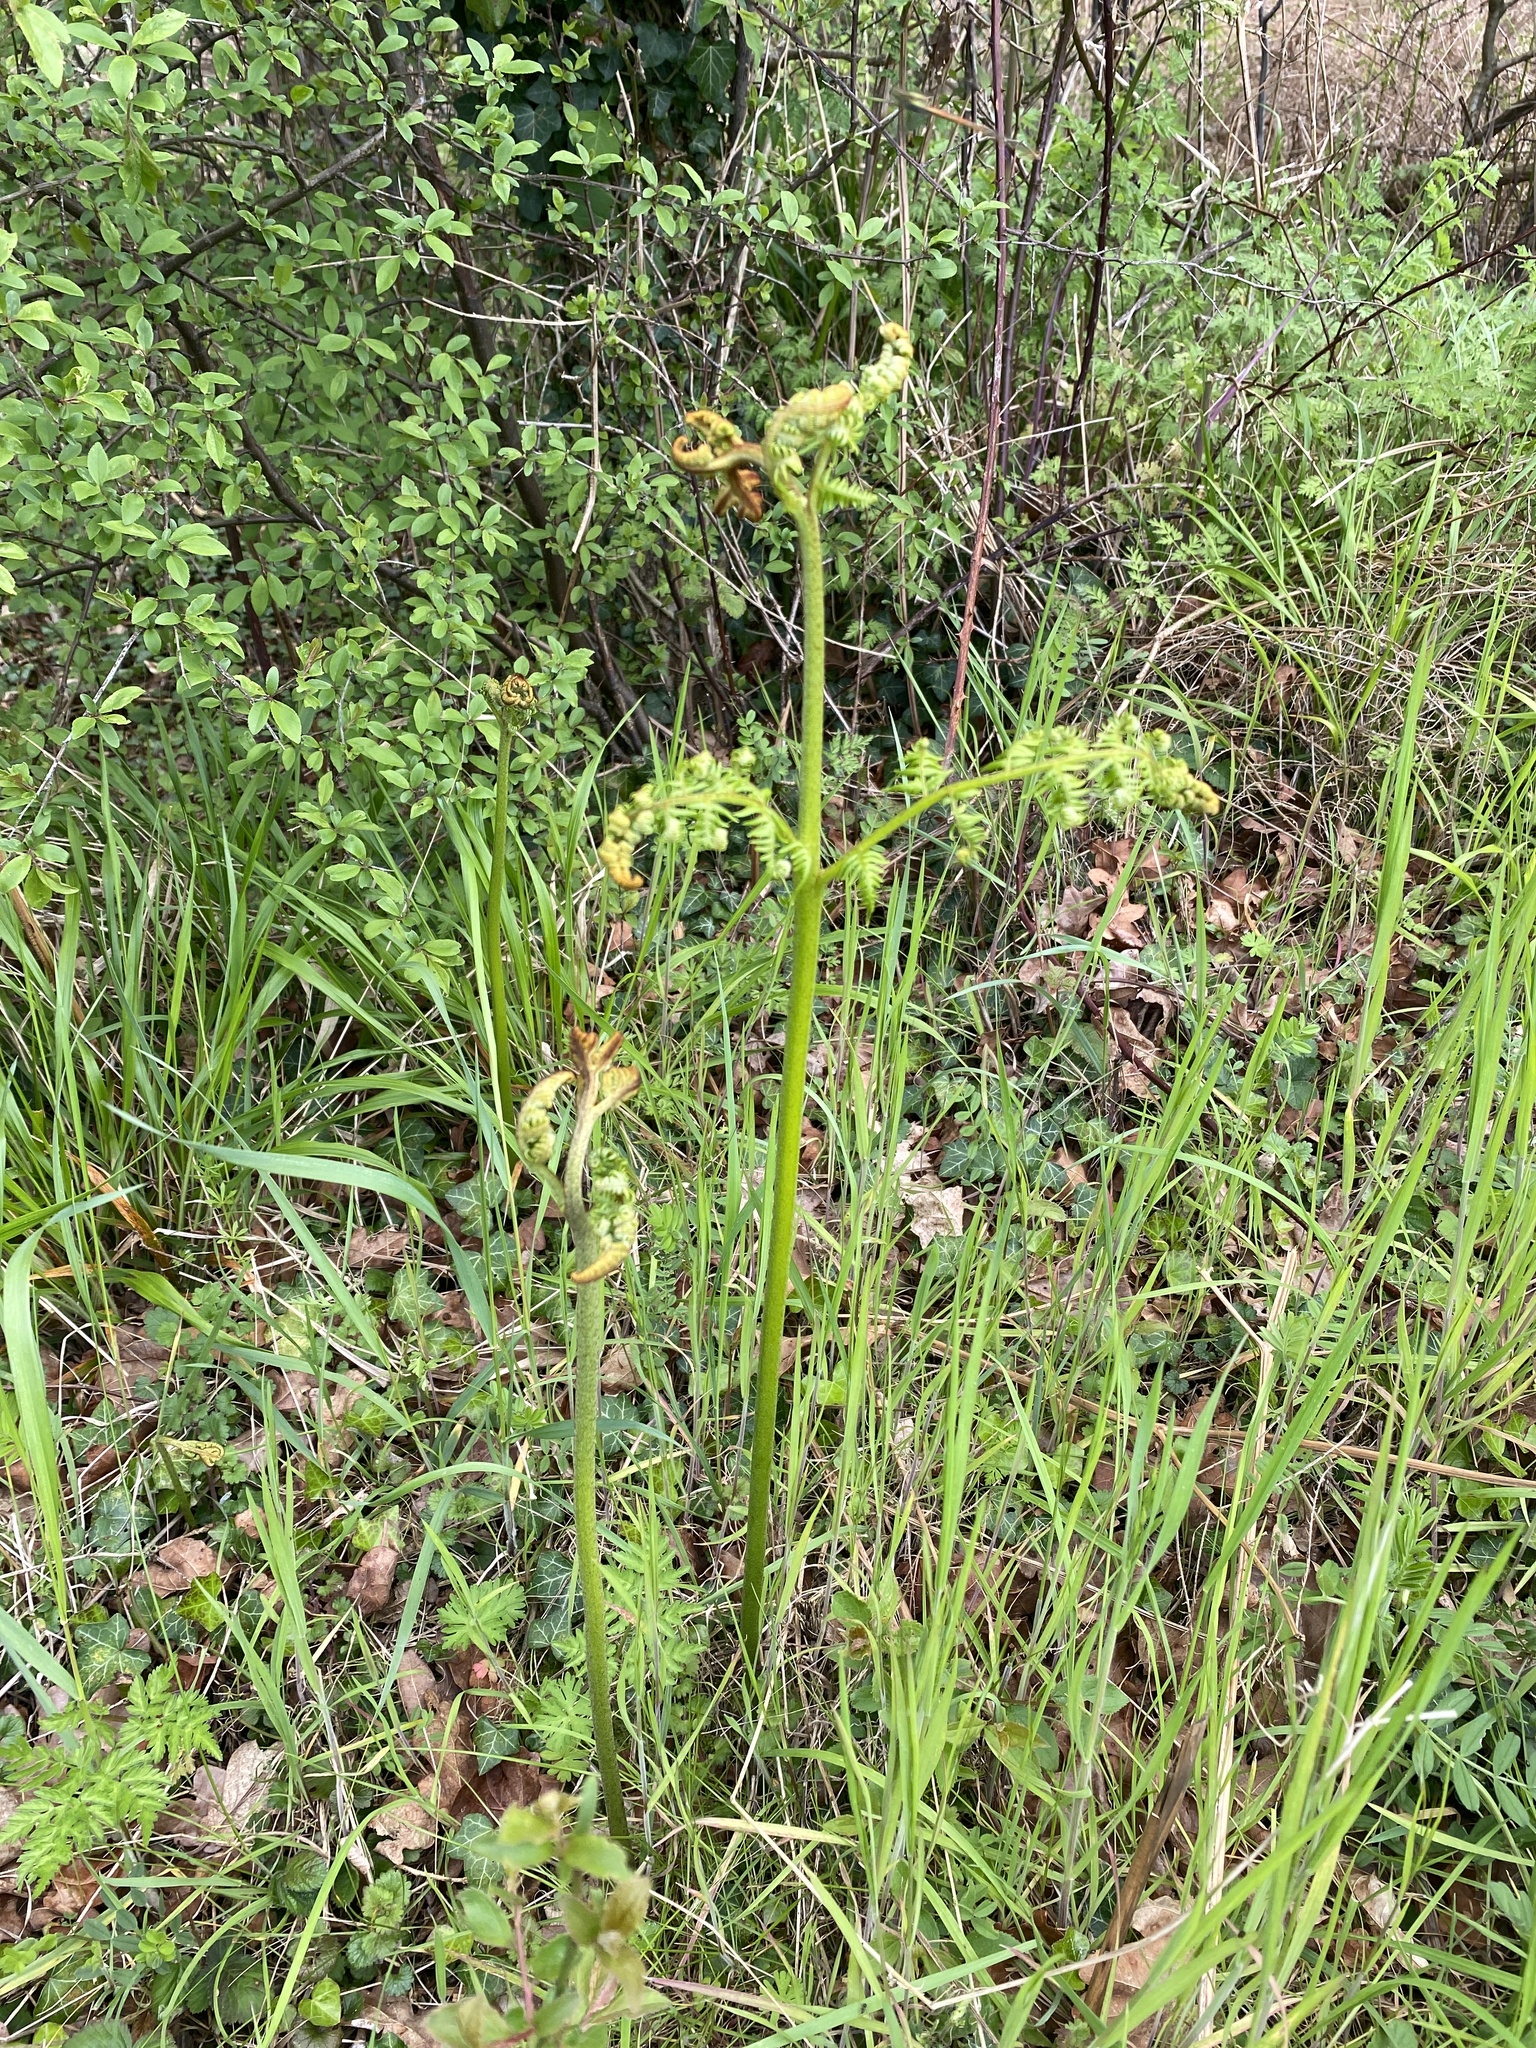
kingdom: Plantae
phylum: Tracheophyta
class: Polypodiopsida
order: Polypodiales
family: Dennstaedtiaceae
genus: Pteridium
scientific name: Pteridium aquilinum
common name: Bracken
